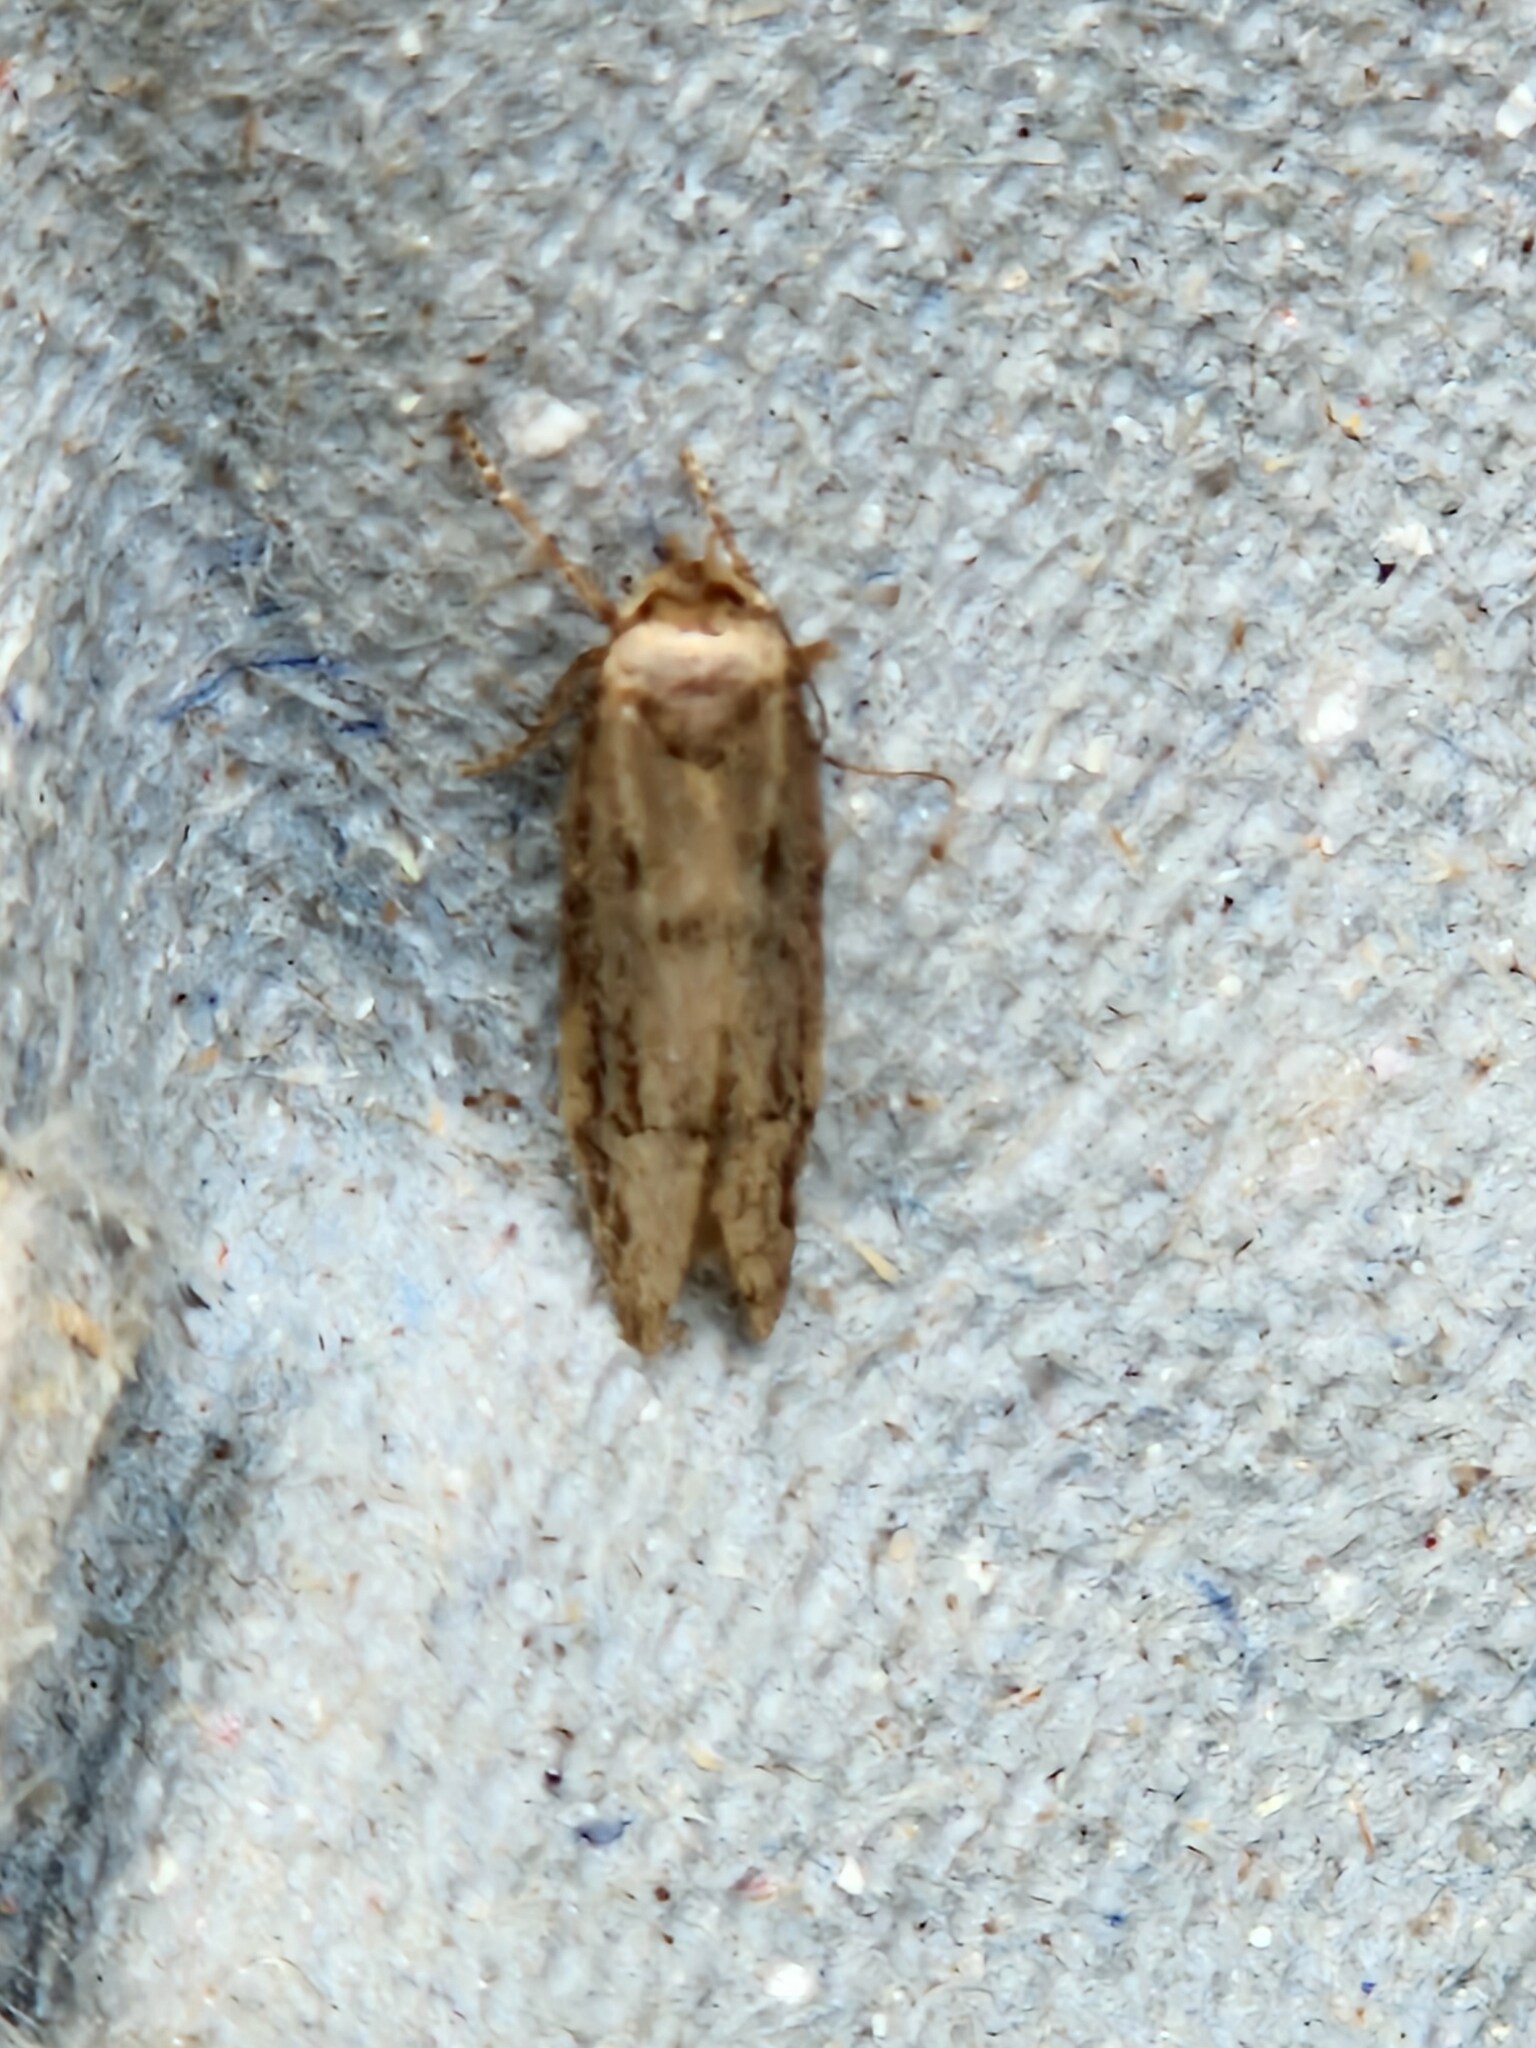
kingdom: Animalia
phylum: Arthropoda
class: Insecta
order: Lepidoptera
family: Blastobasidae
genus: Blastobasis
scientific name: Blastobasis adustella
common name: Dingy dowd
